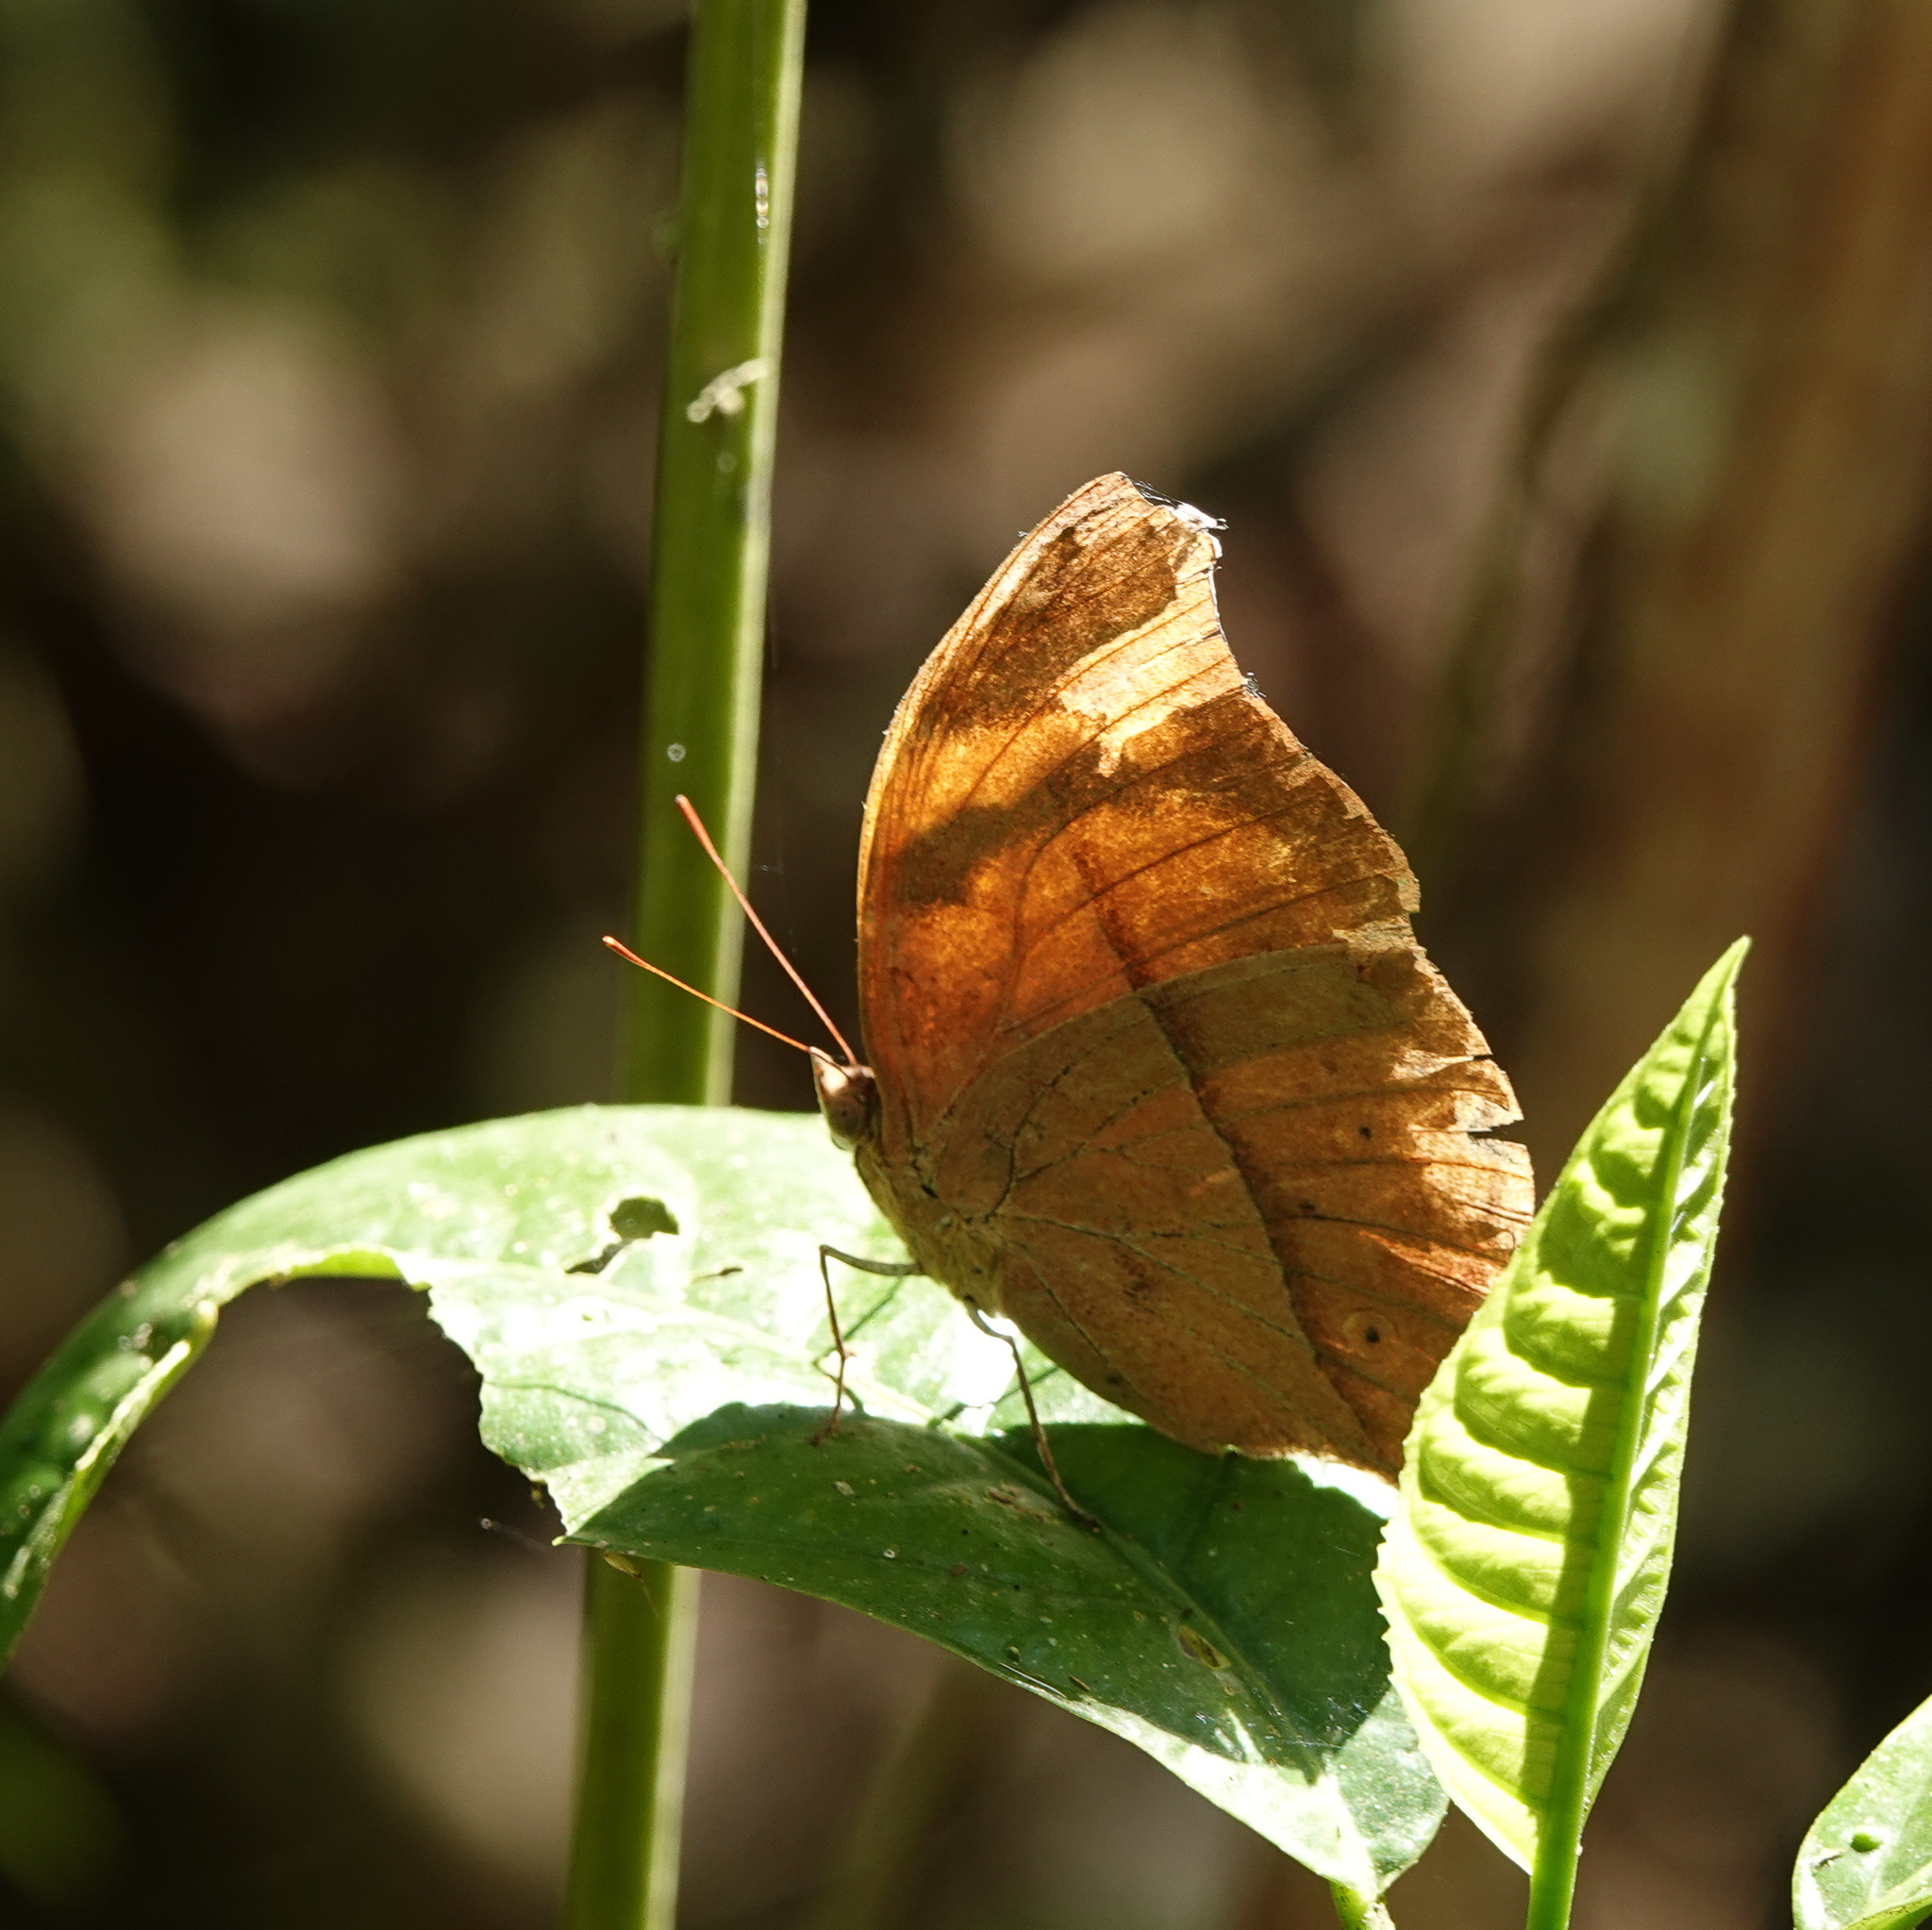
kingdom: Animalia
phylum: Arthropoda
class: Insecta
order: Lepidoptera
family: Nymphalidae
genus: Kallima
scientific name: Kallima inachus
